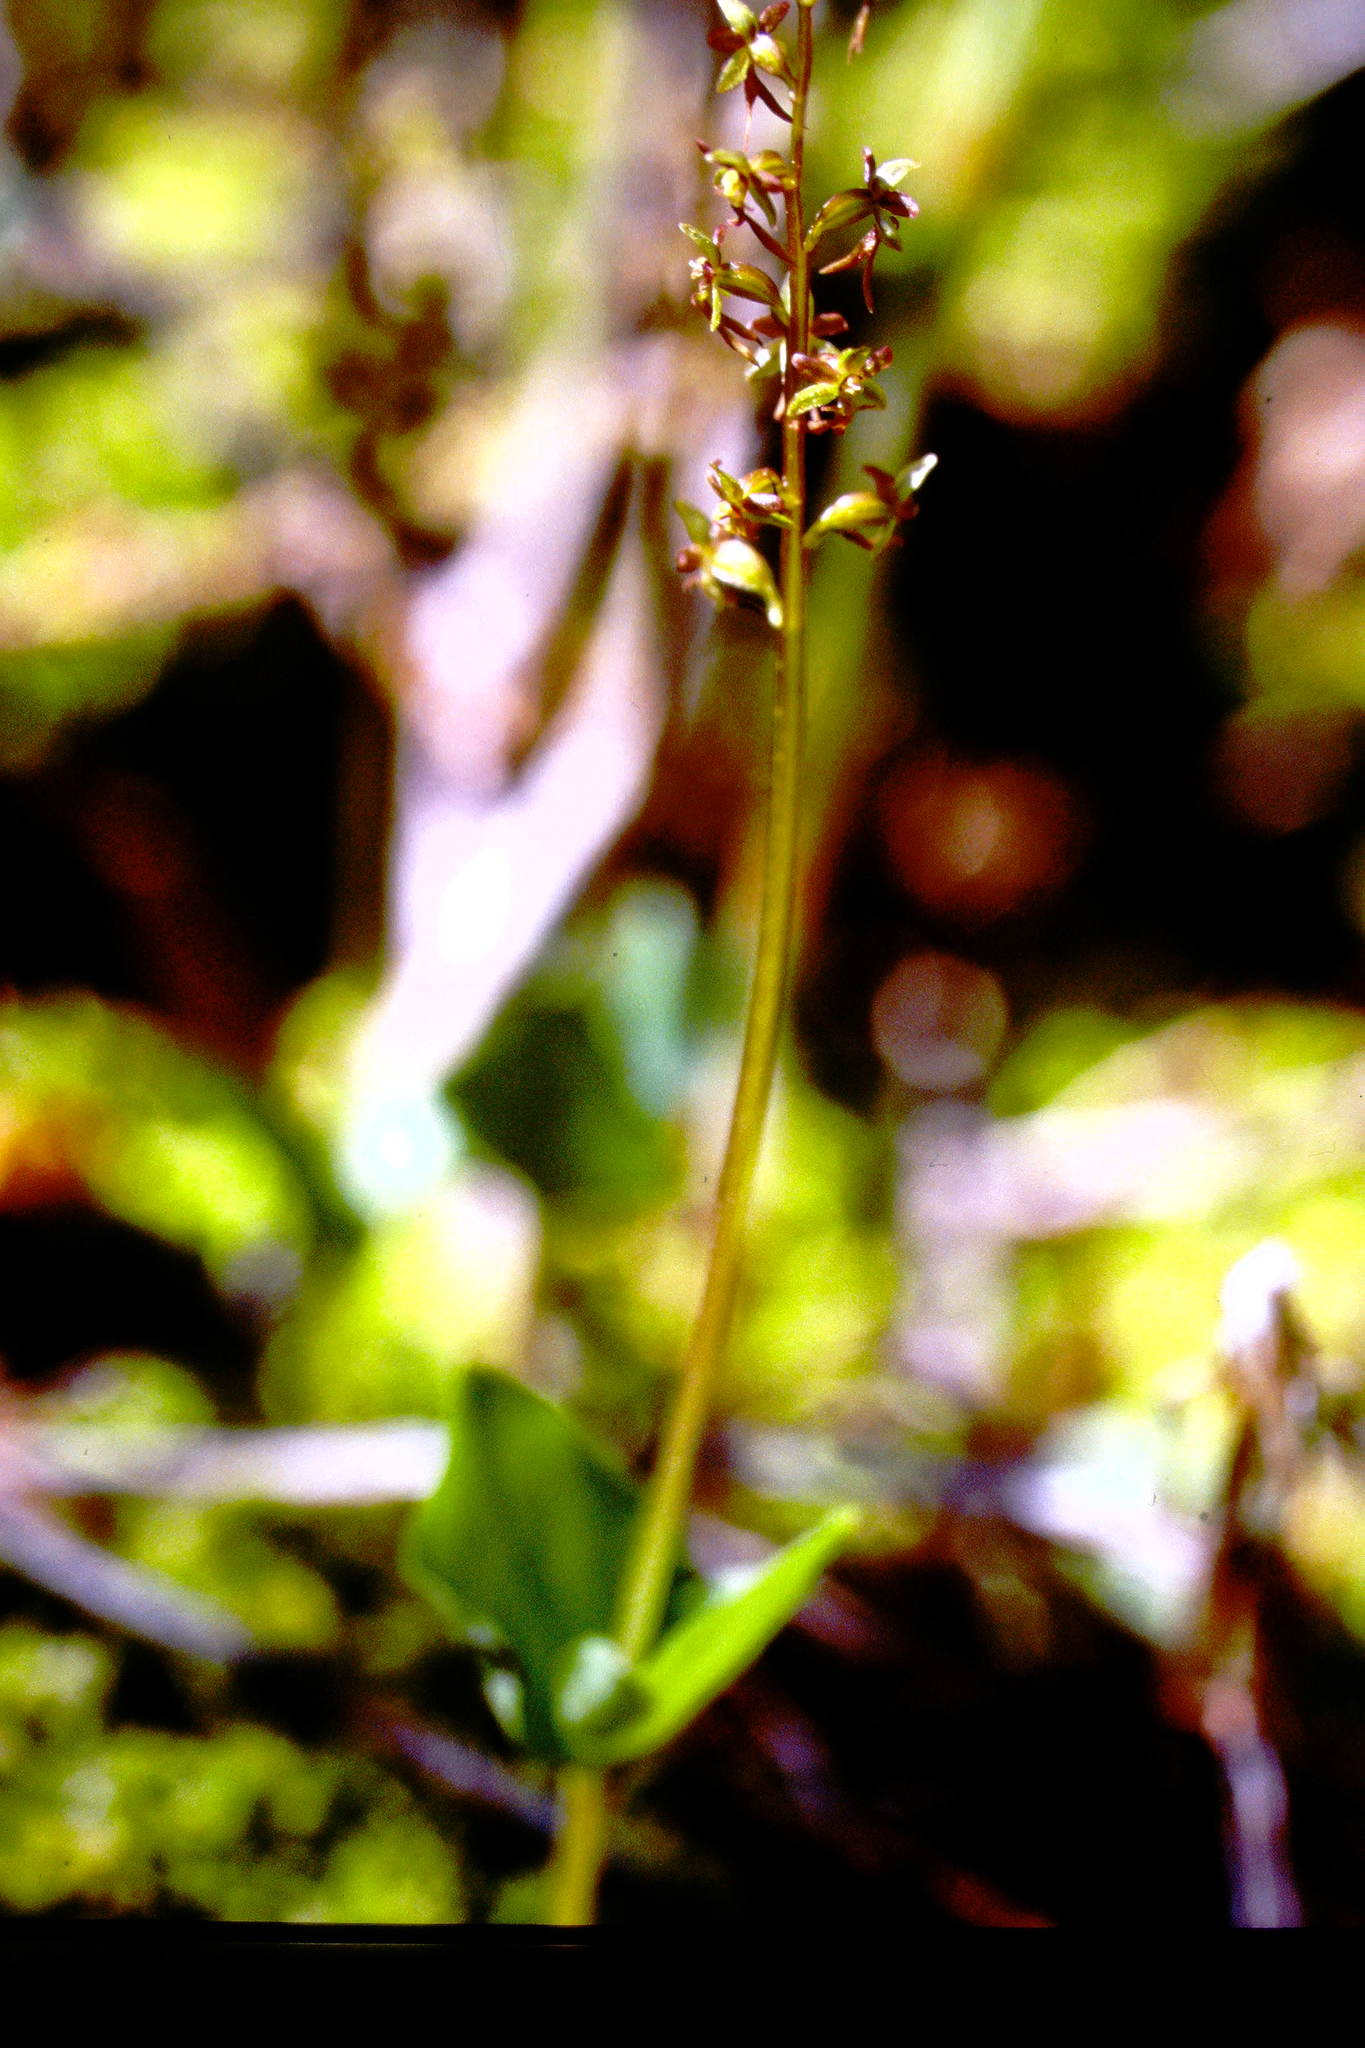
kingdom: Plantae
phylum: Tracheophyta
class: Liliopsida
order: Asparagales
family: Orchidaceae
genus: Neottia
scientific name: Neottia cordata
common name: Lesser twayblade
